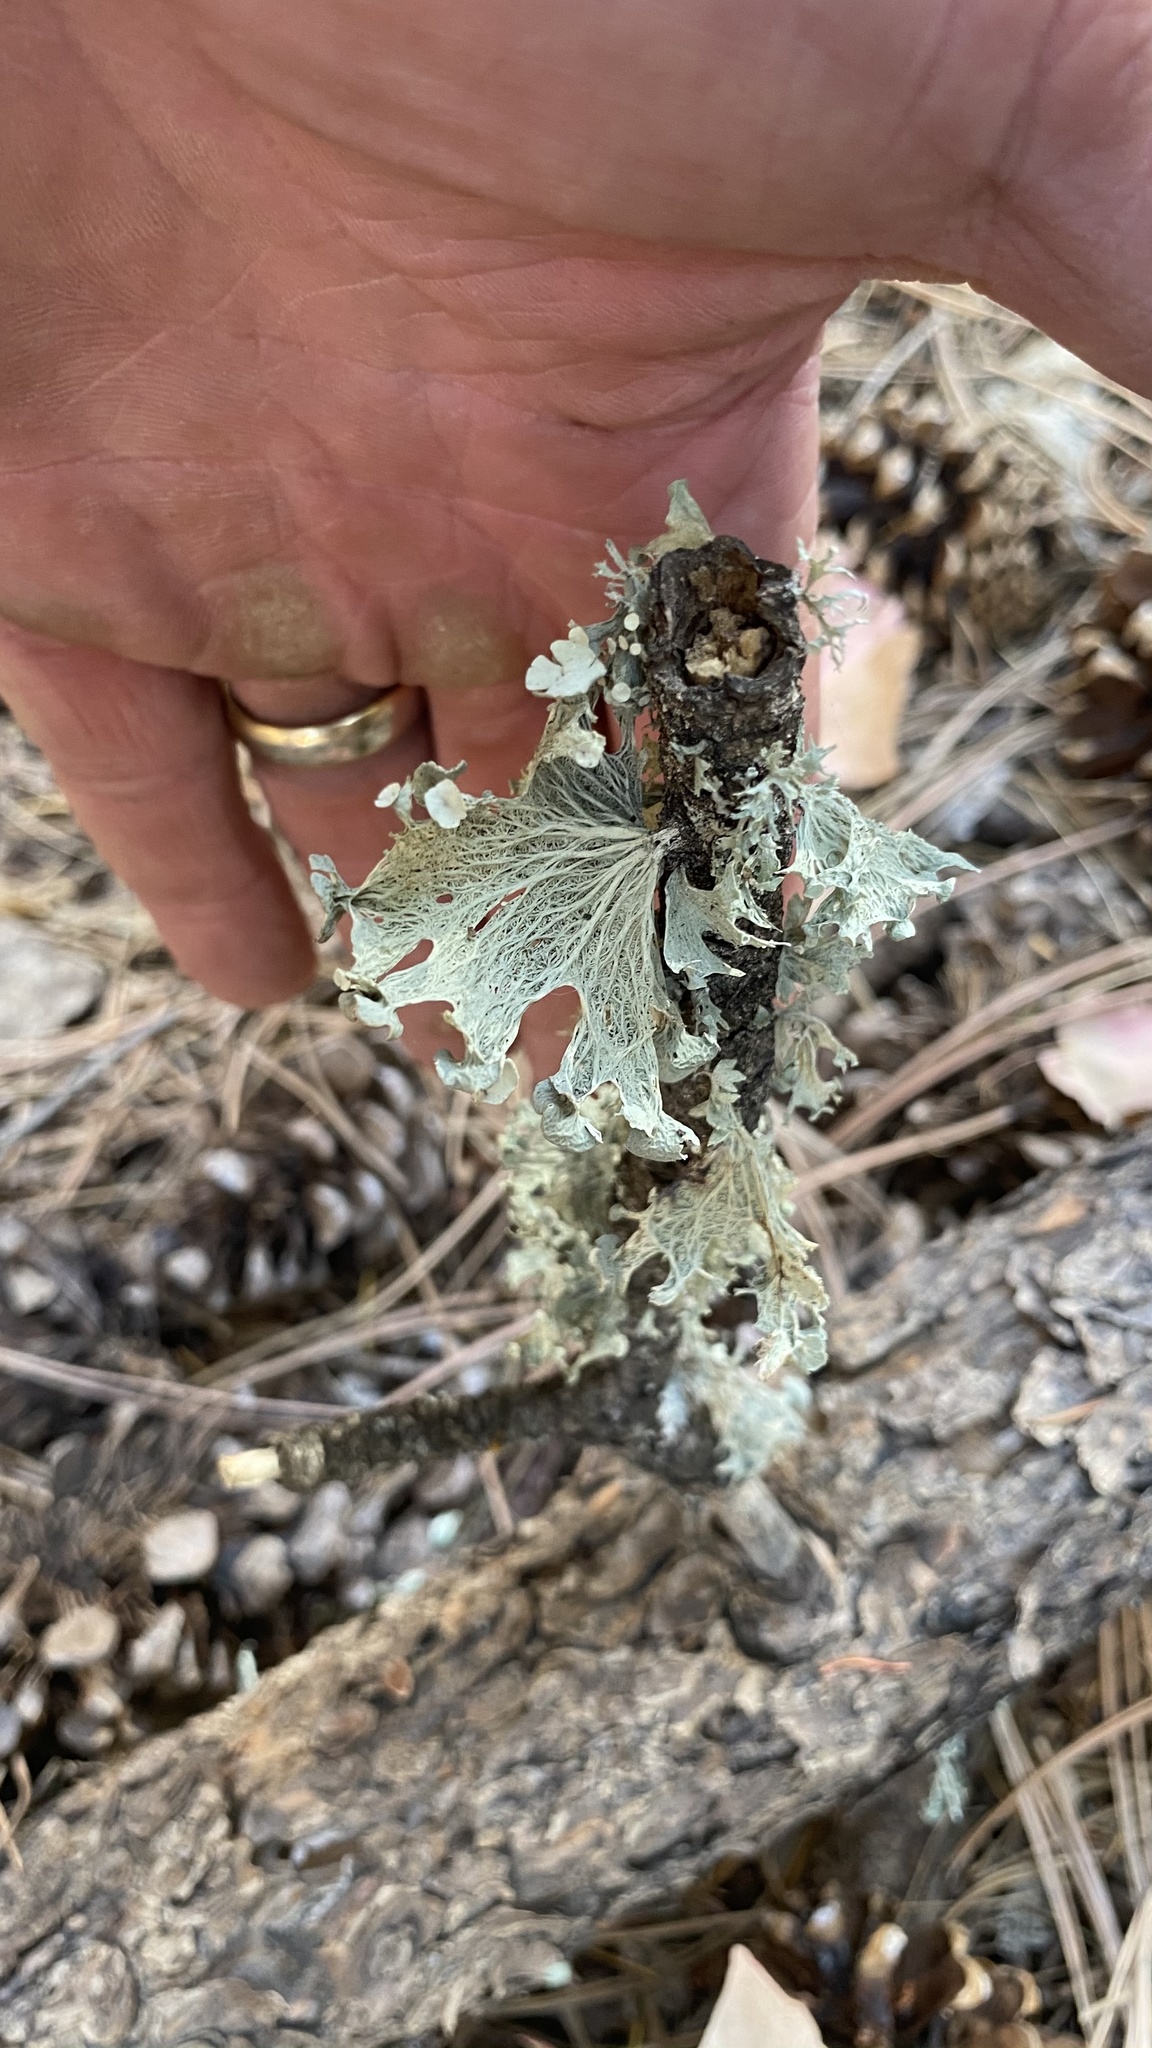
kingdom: Fungi
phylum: Ascomycota
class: Lecanoromycetes
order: Lecanorales
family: Ramalinaceae
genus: Ramalina
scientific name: Ramalina sinensis
